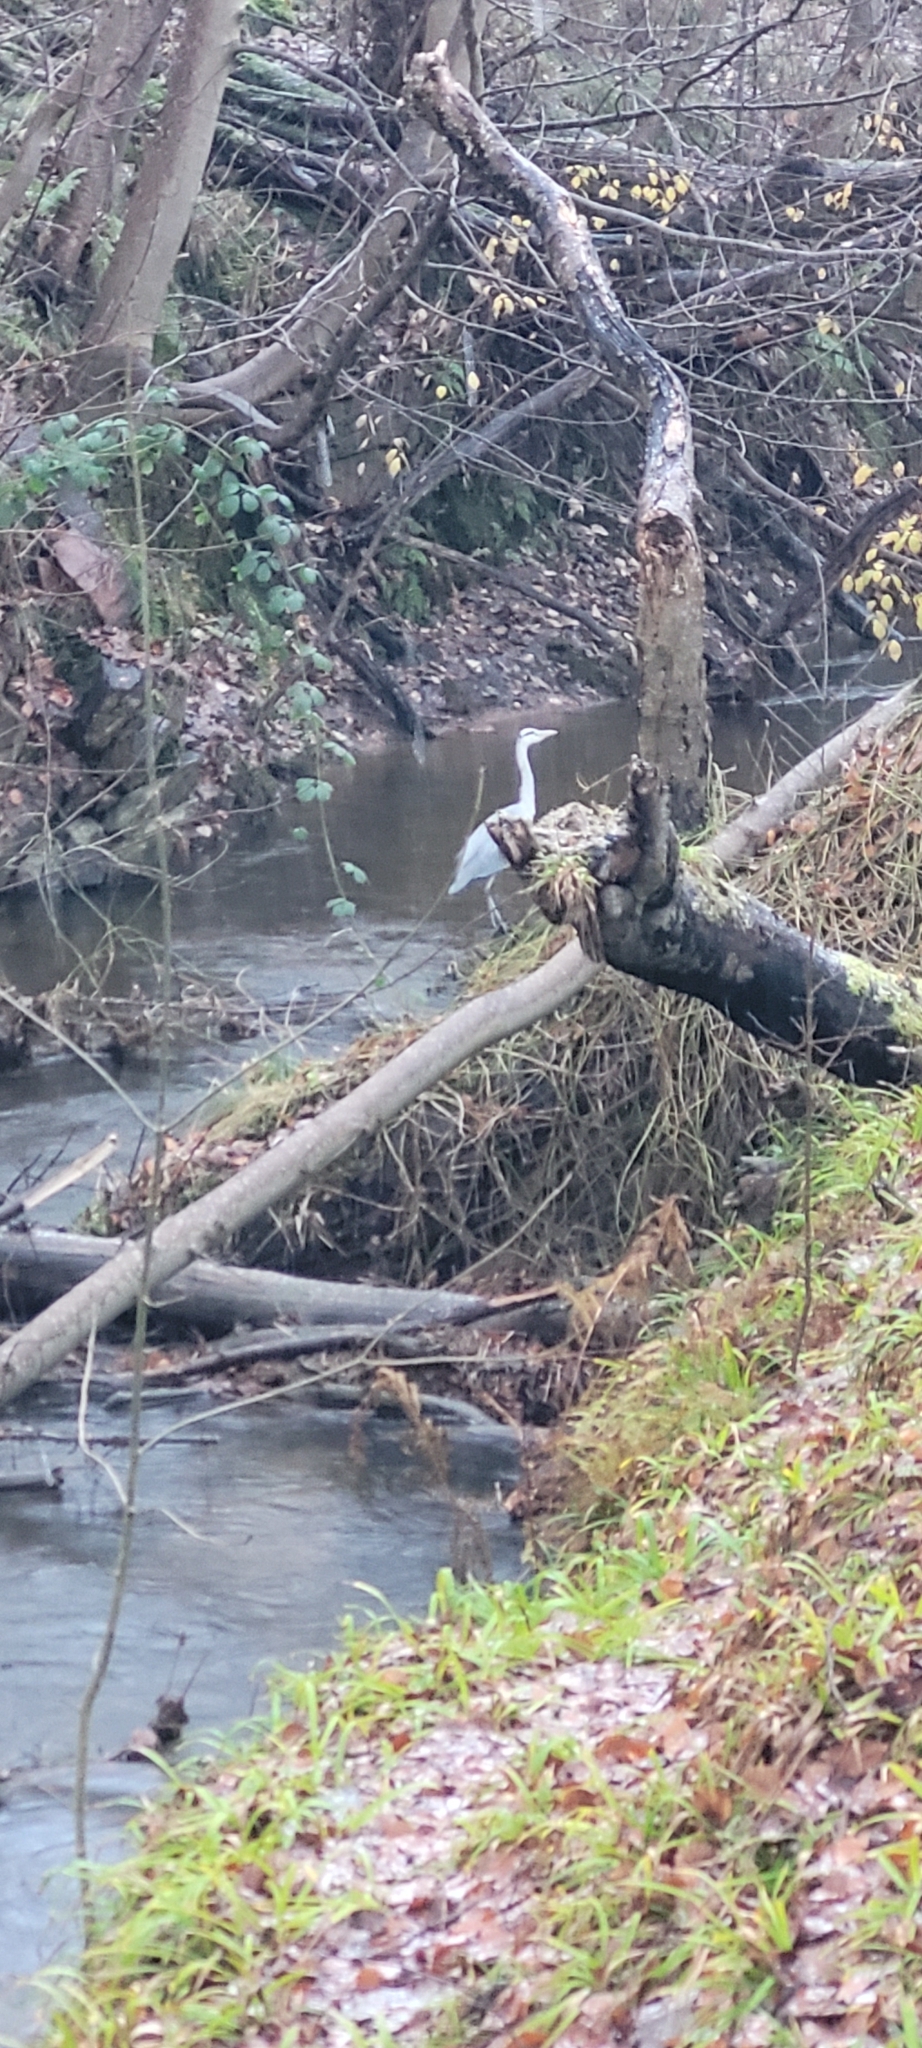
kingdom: Animalia
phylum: Chordata
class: Aves
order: Pelecaniformes
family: Ardeidae
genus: Ardea
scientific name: Ardea cinerea
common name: Grey heron
